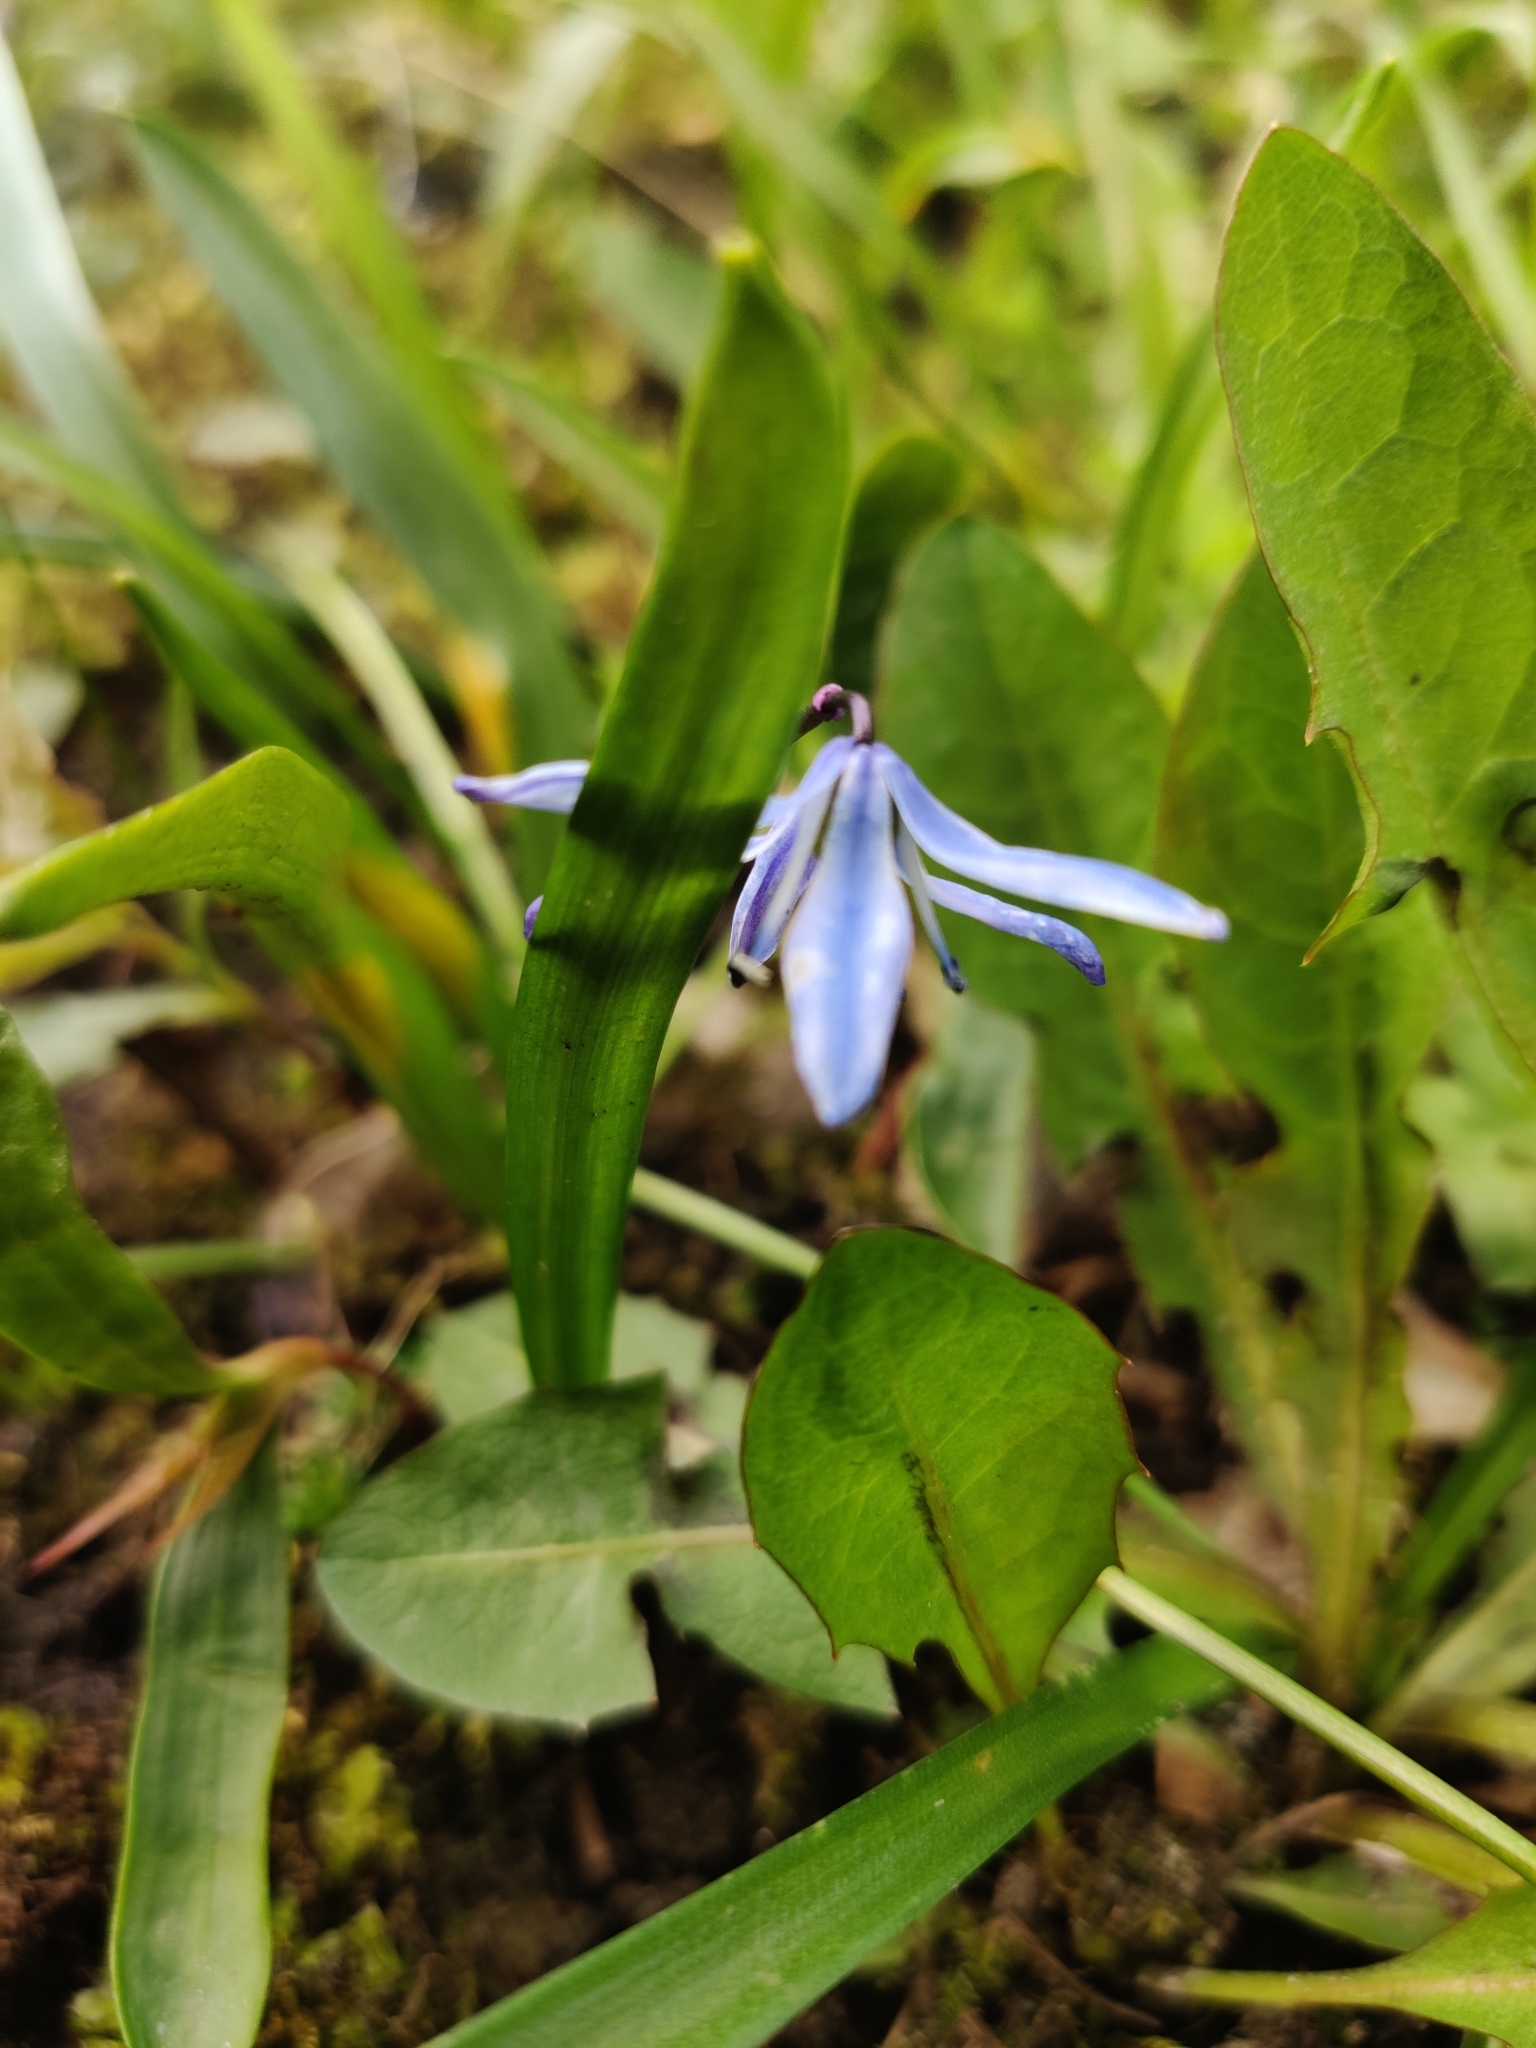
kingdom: Plantae
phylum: Tracheophyta
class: Liliopsida
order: Asparagales
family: Asparagaceae
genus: Scilla
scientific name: Scilla siberica
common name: Siberian squill
